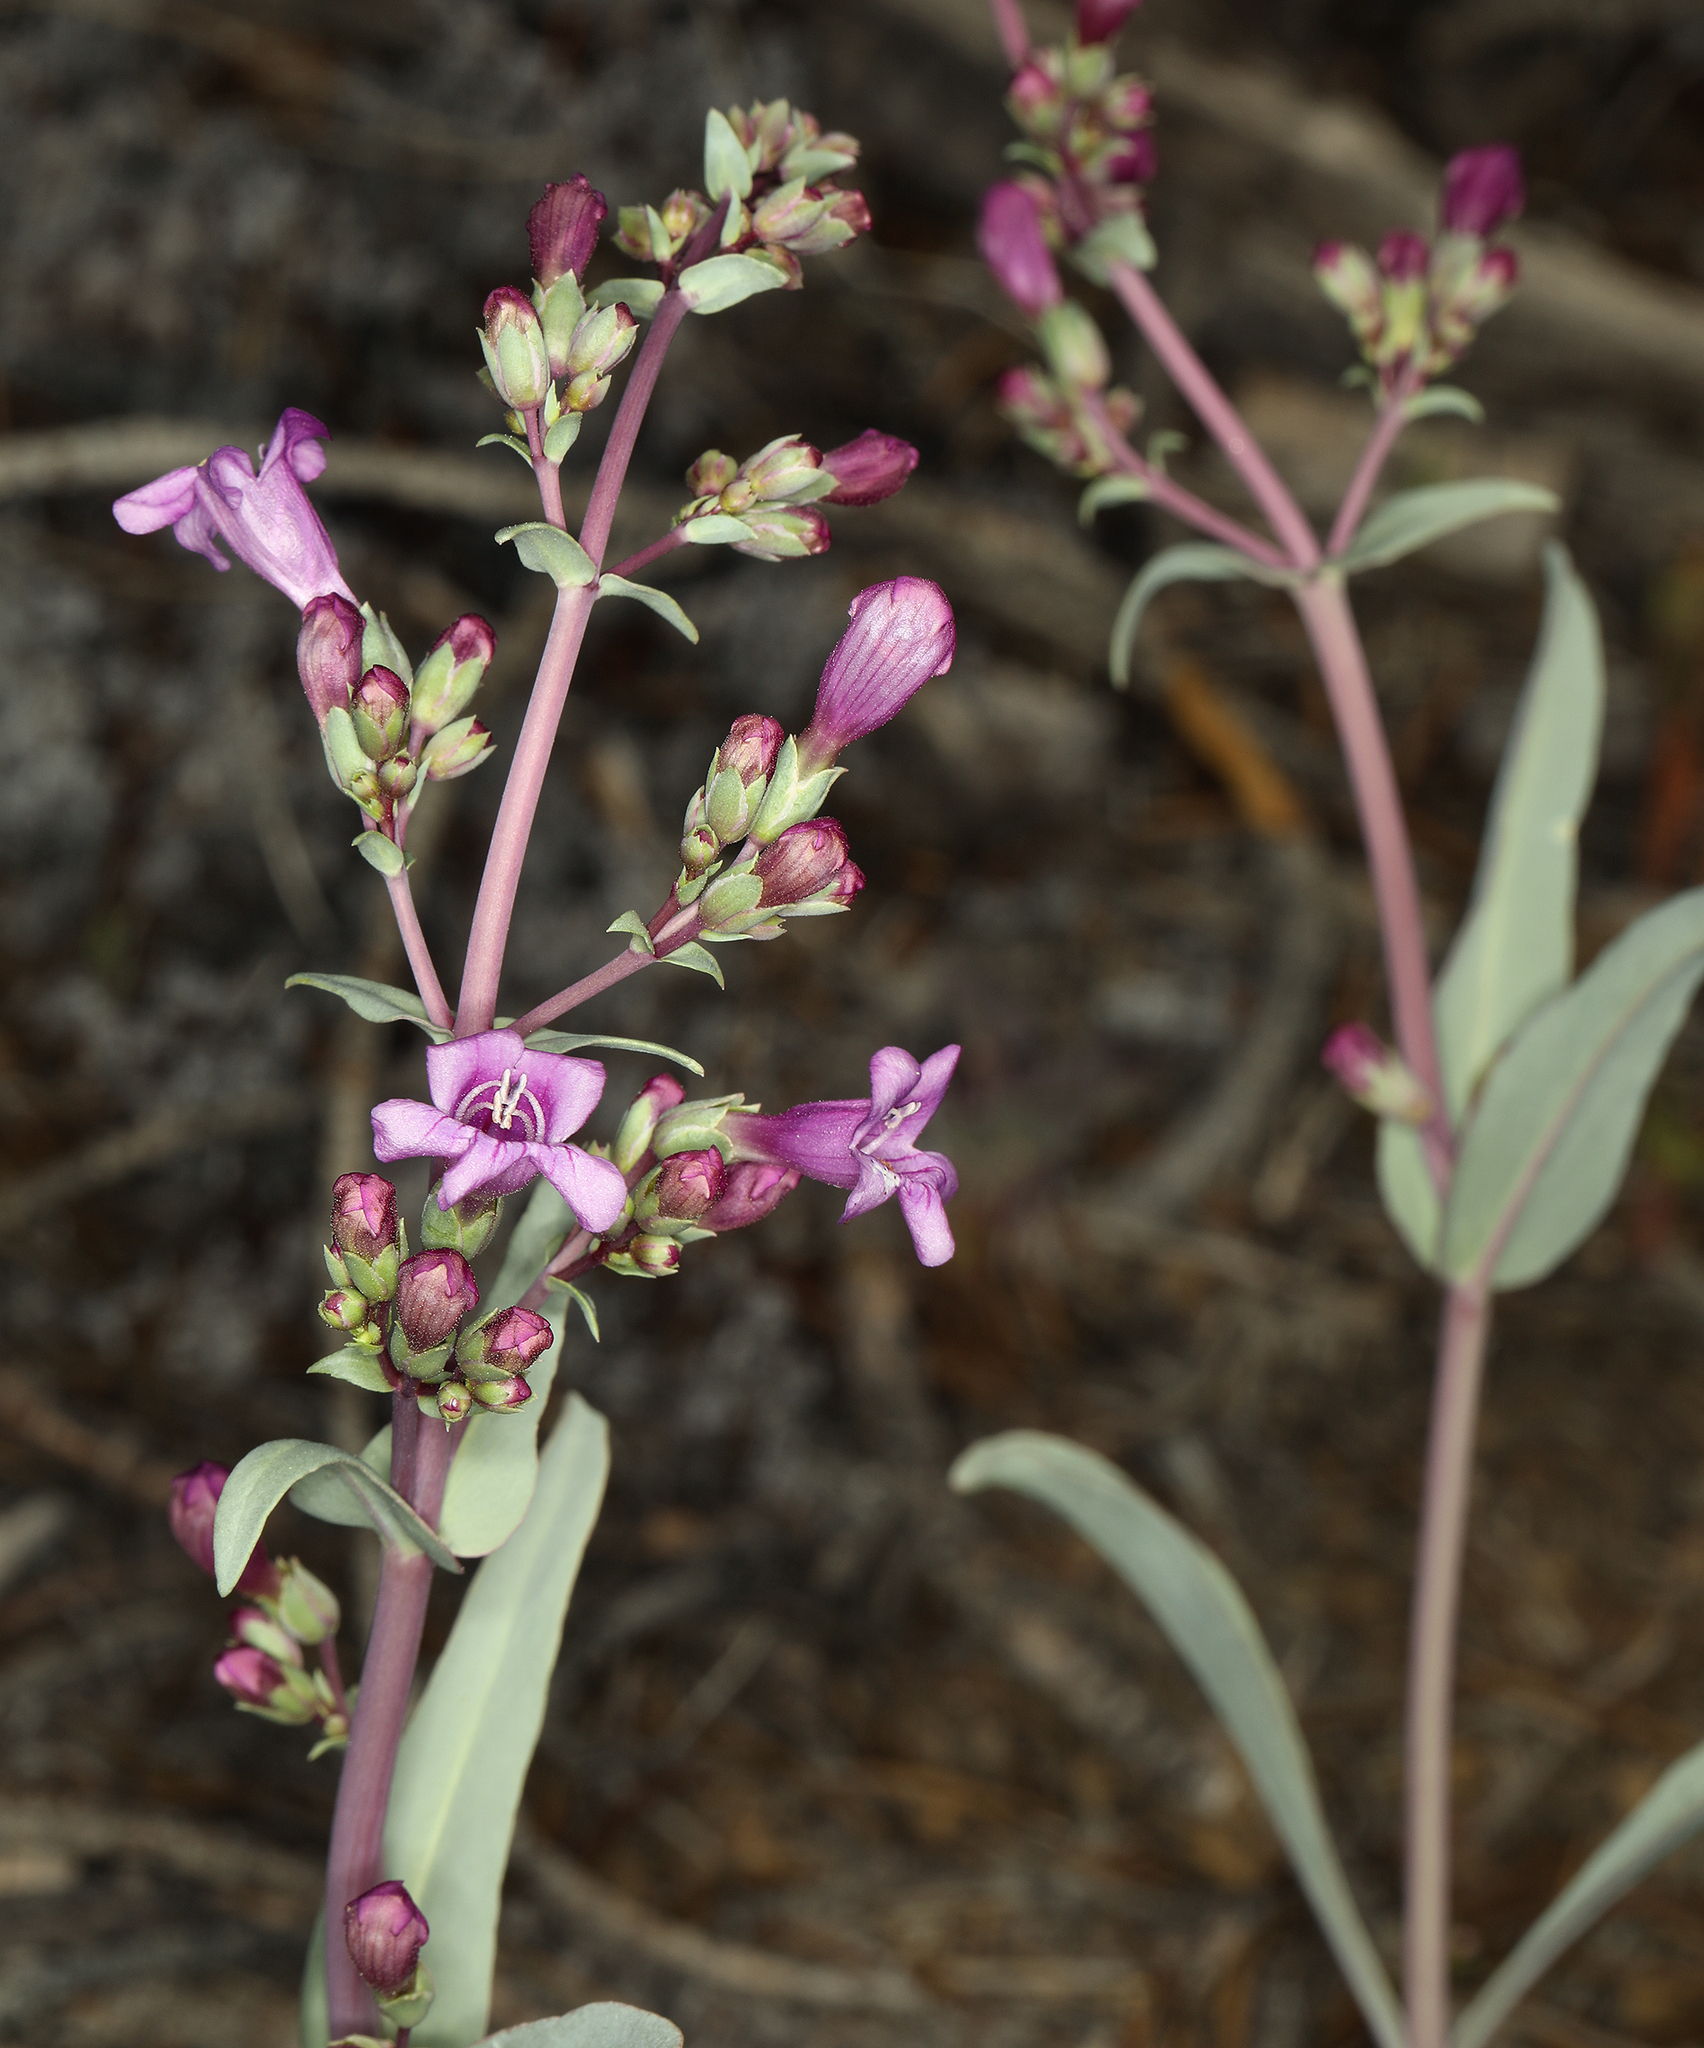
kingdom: Plantae
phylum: Tracheophyta
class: Magnoliopsida
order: Lamiales
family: Plantaginaceae
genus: Penstemon
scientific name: Penstemon patens
